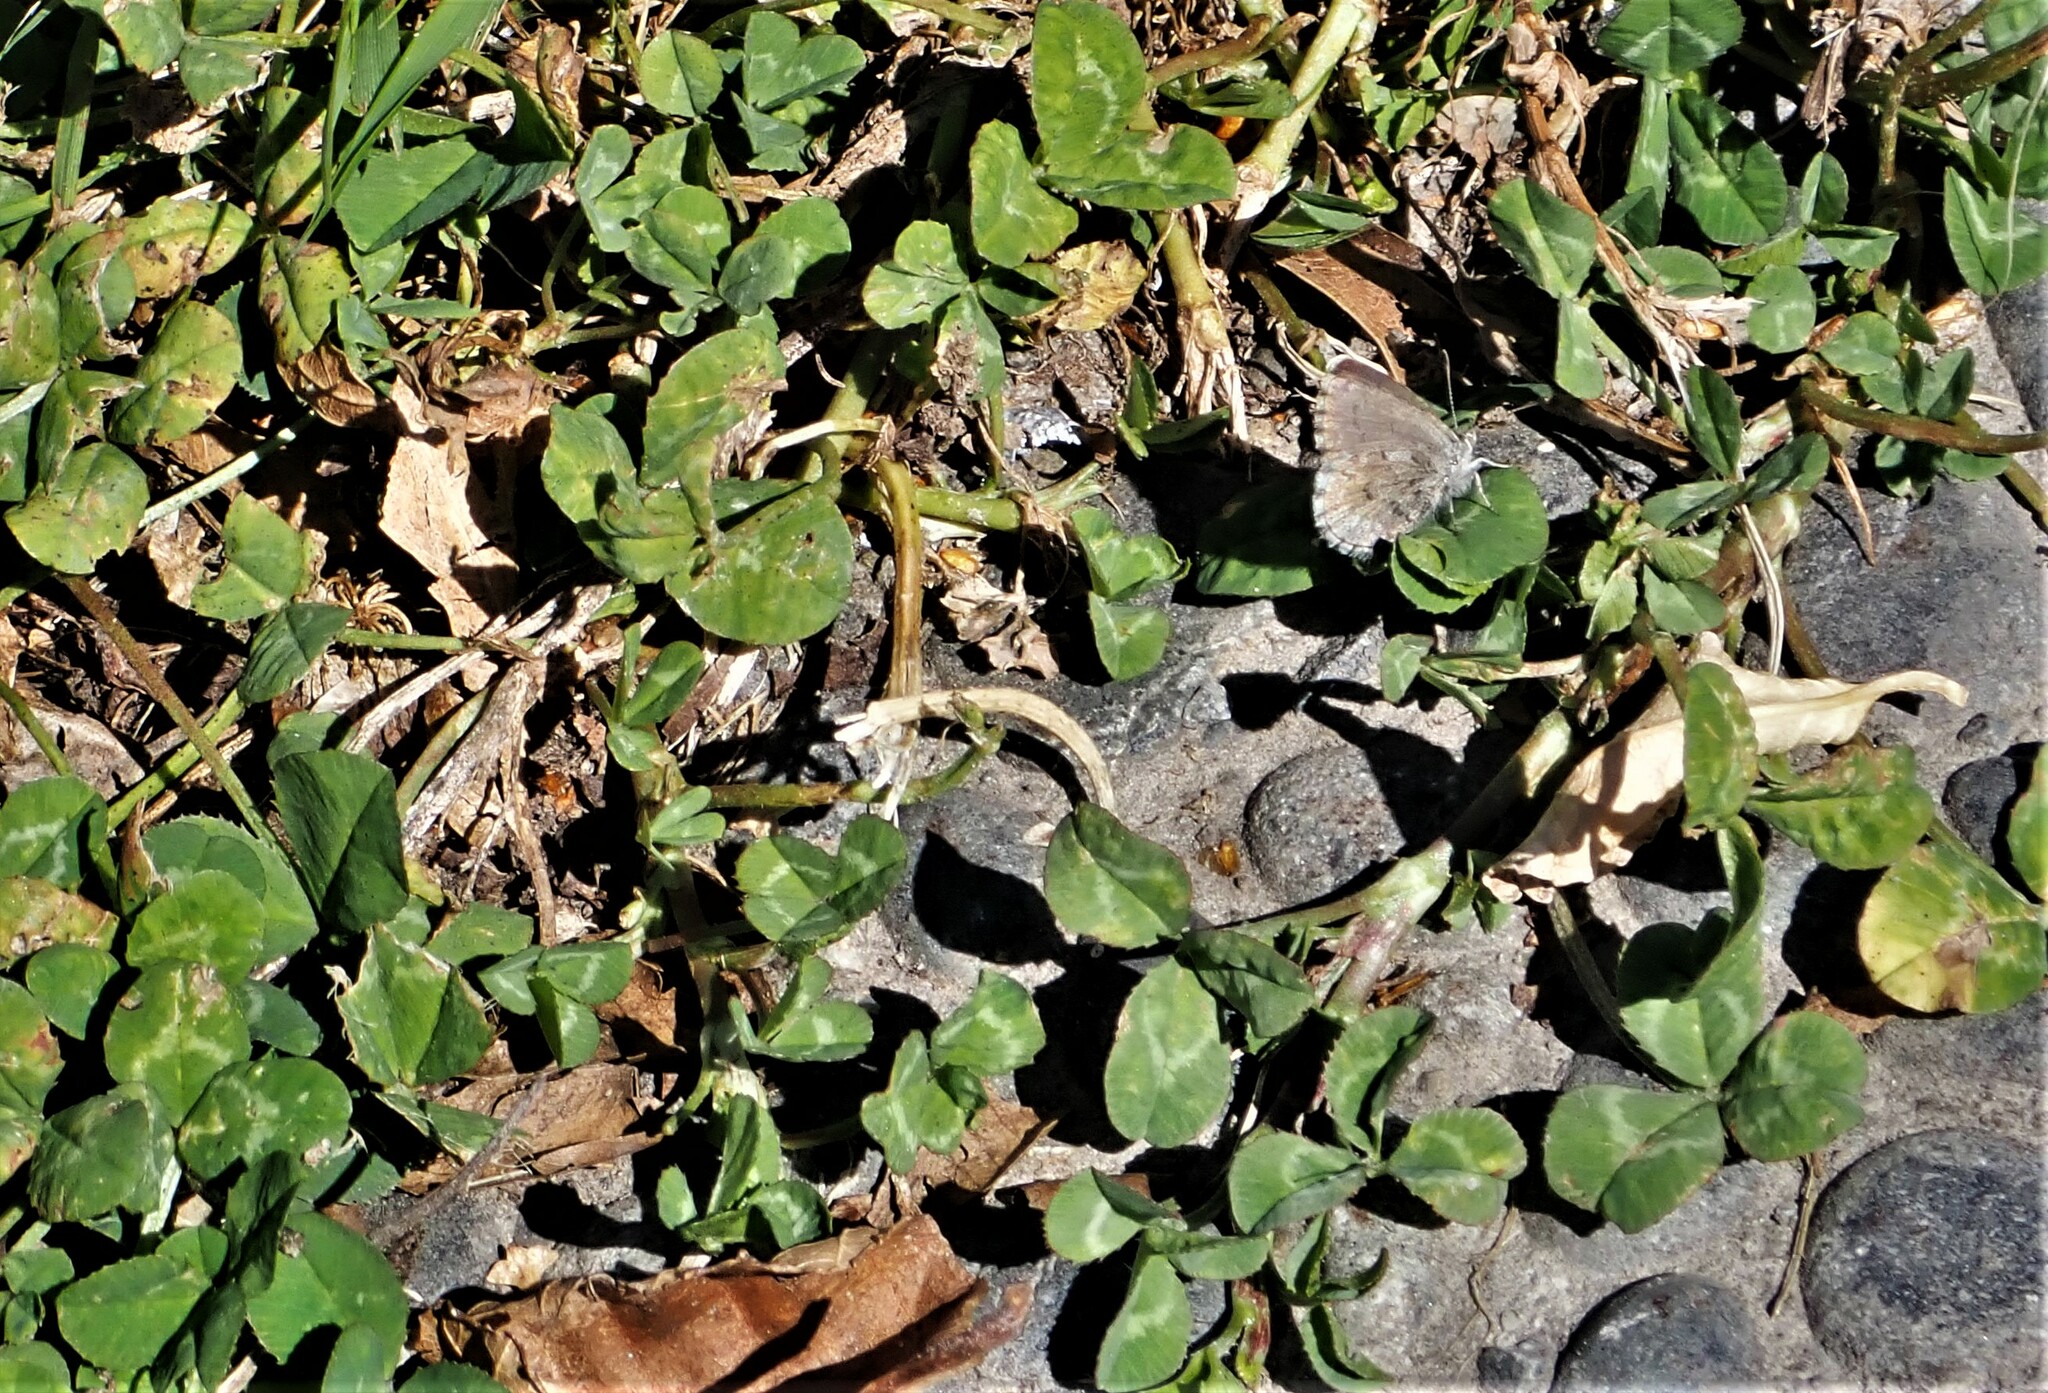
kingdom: Animalia
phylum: Arthropoda
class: Insecta
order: Lepidoptera
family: Lycaenidae
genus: Zizina
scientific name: Zizina oxleyi
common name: Southern blue
